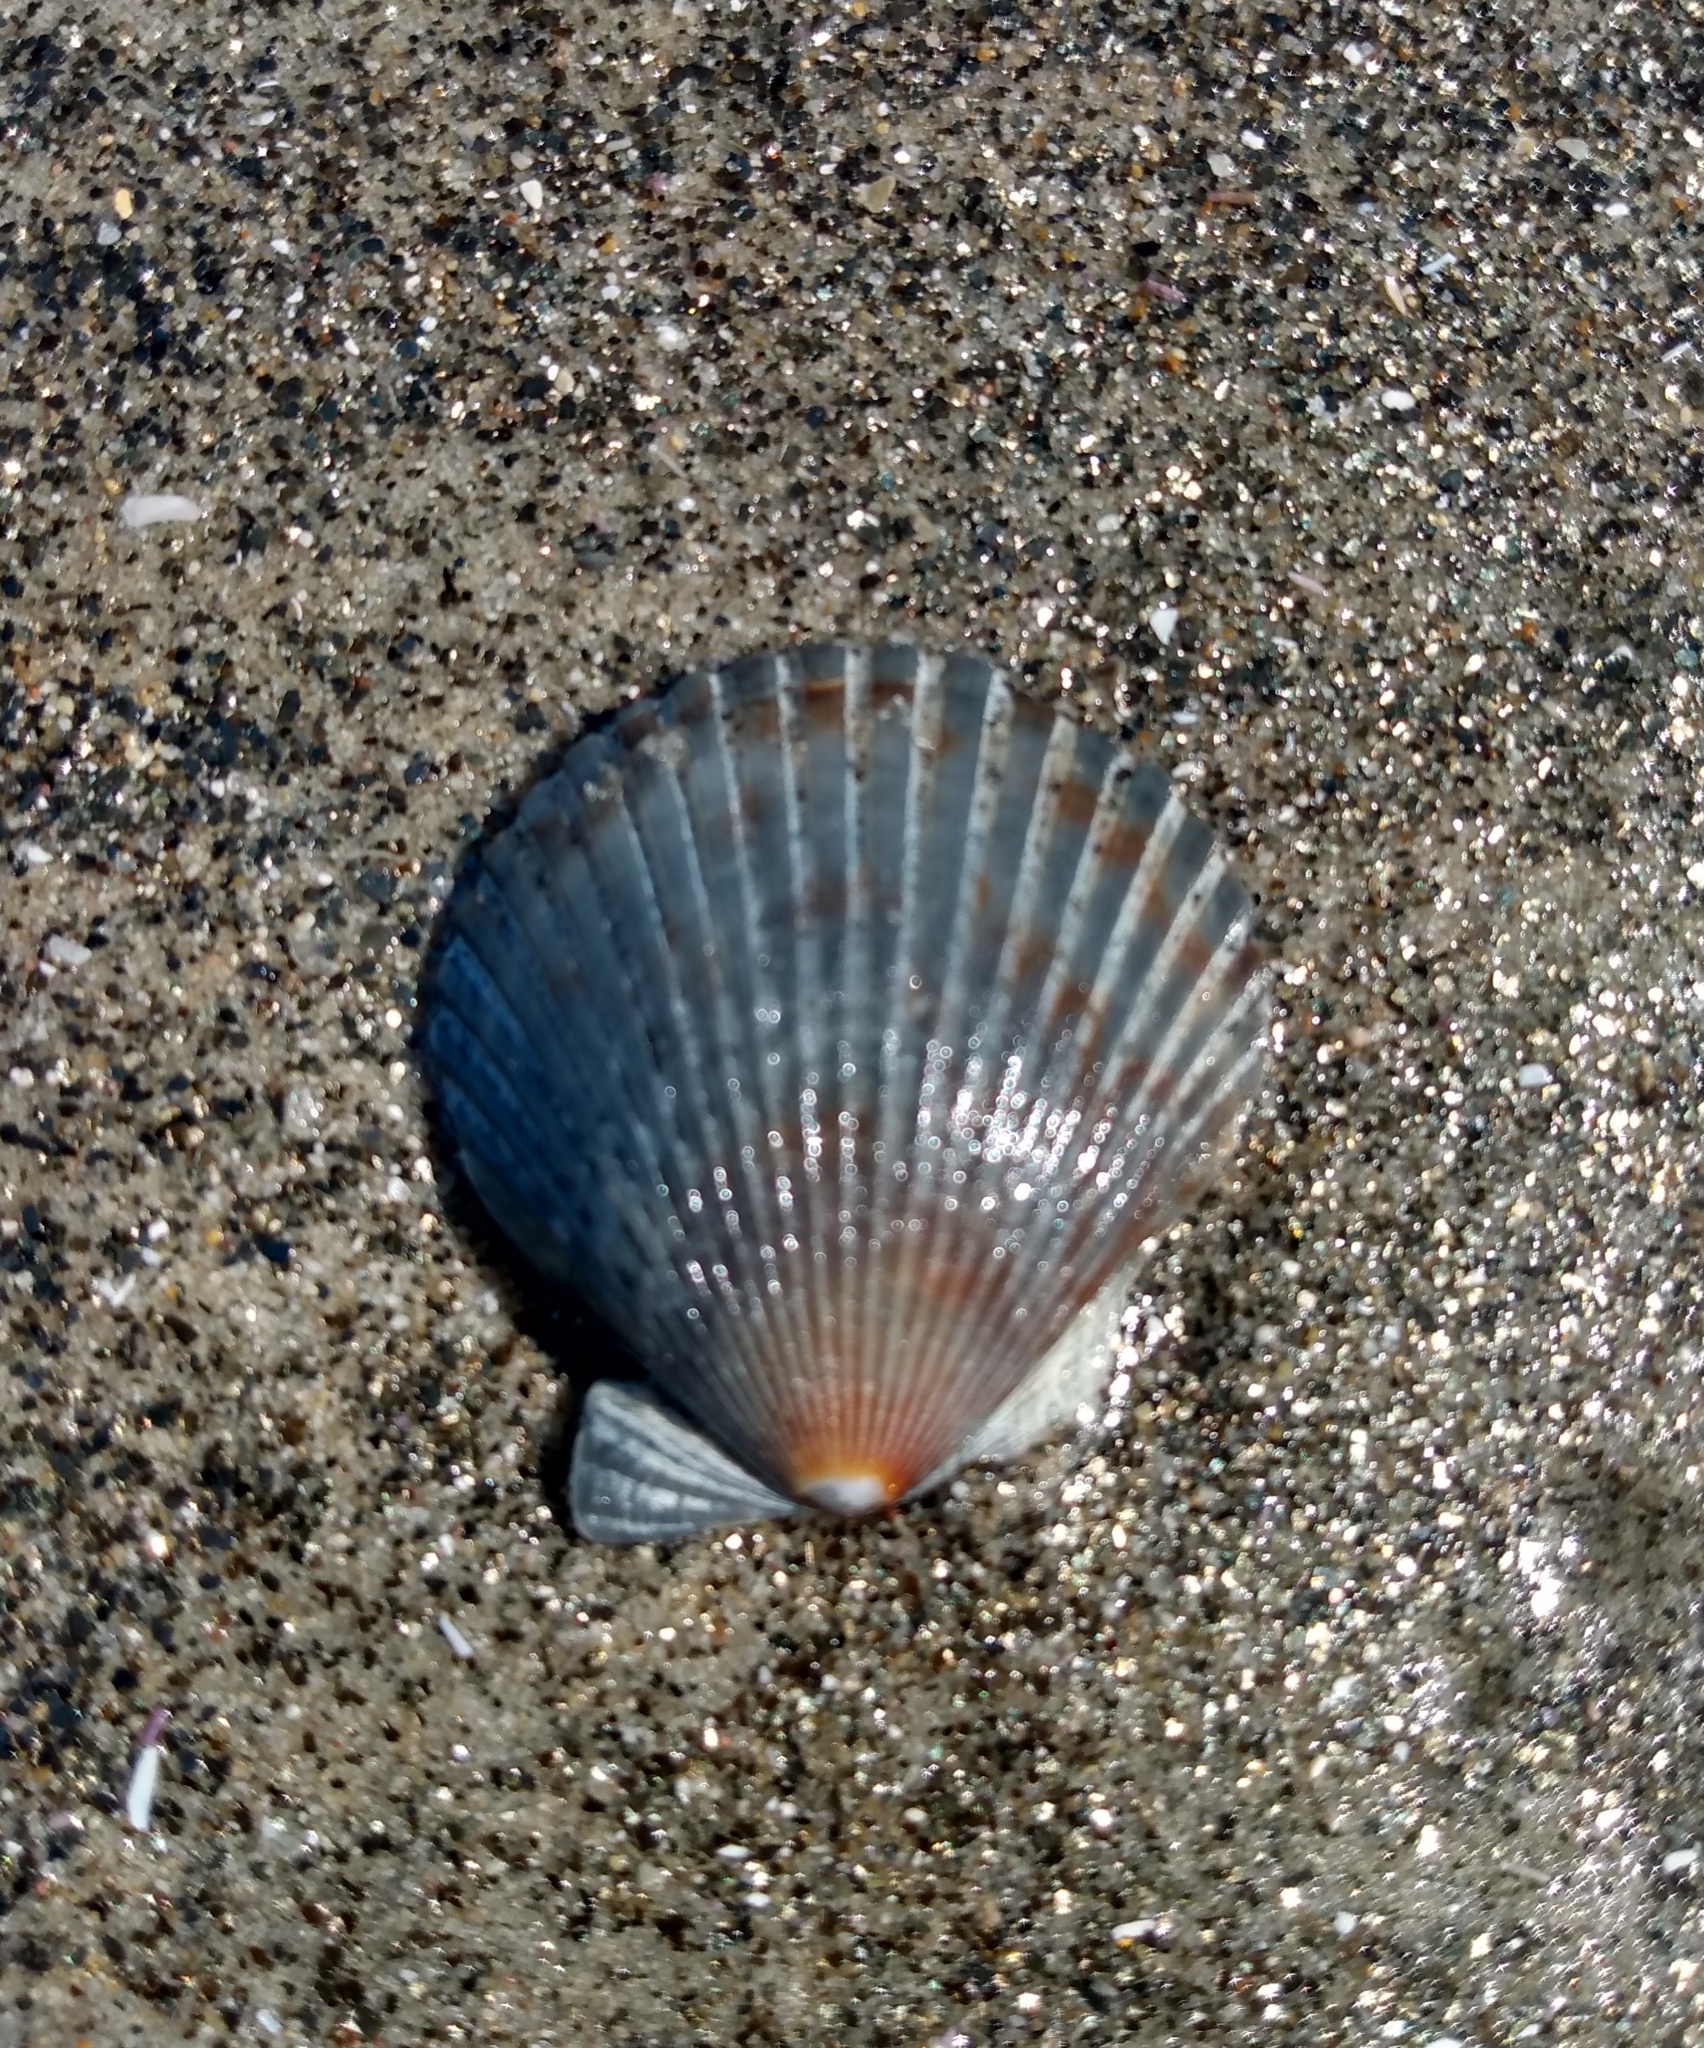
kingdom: Animalia
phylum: Mollusca
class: Bivalvia
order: Pectinida
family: Pectinidae
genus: Argopecten
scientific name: Argopecten ventricosus
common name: Catarina scallop
